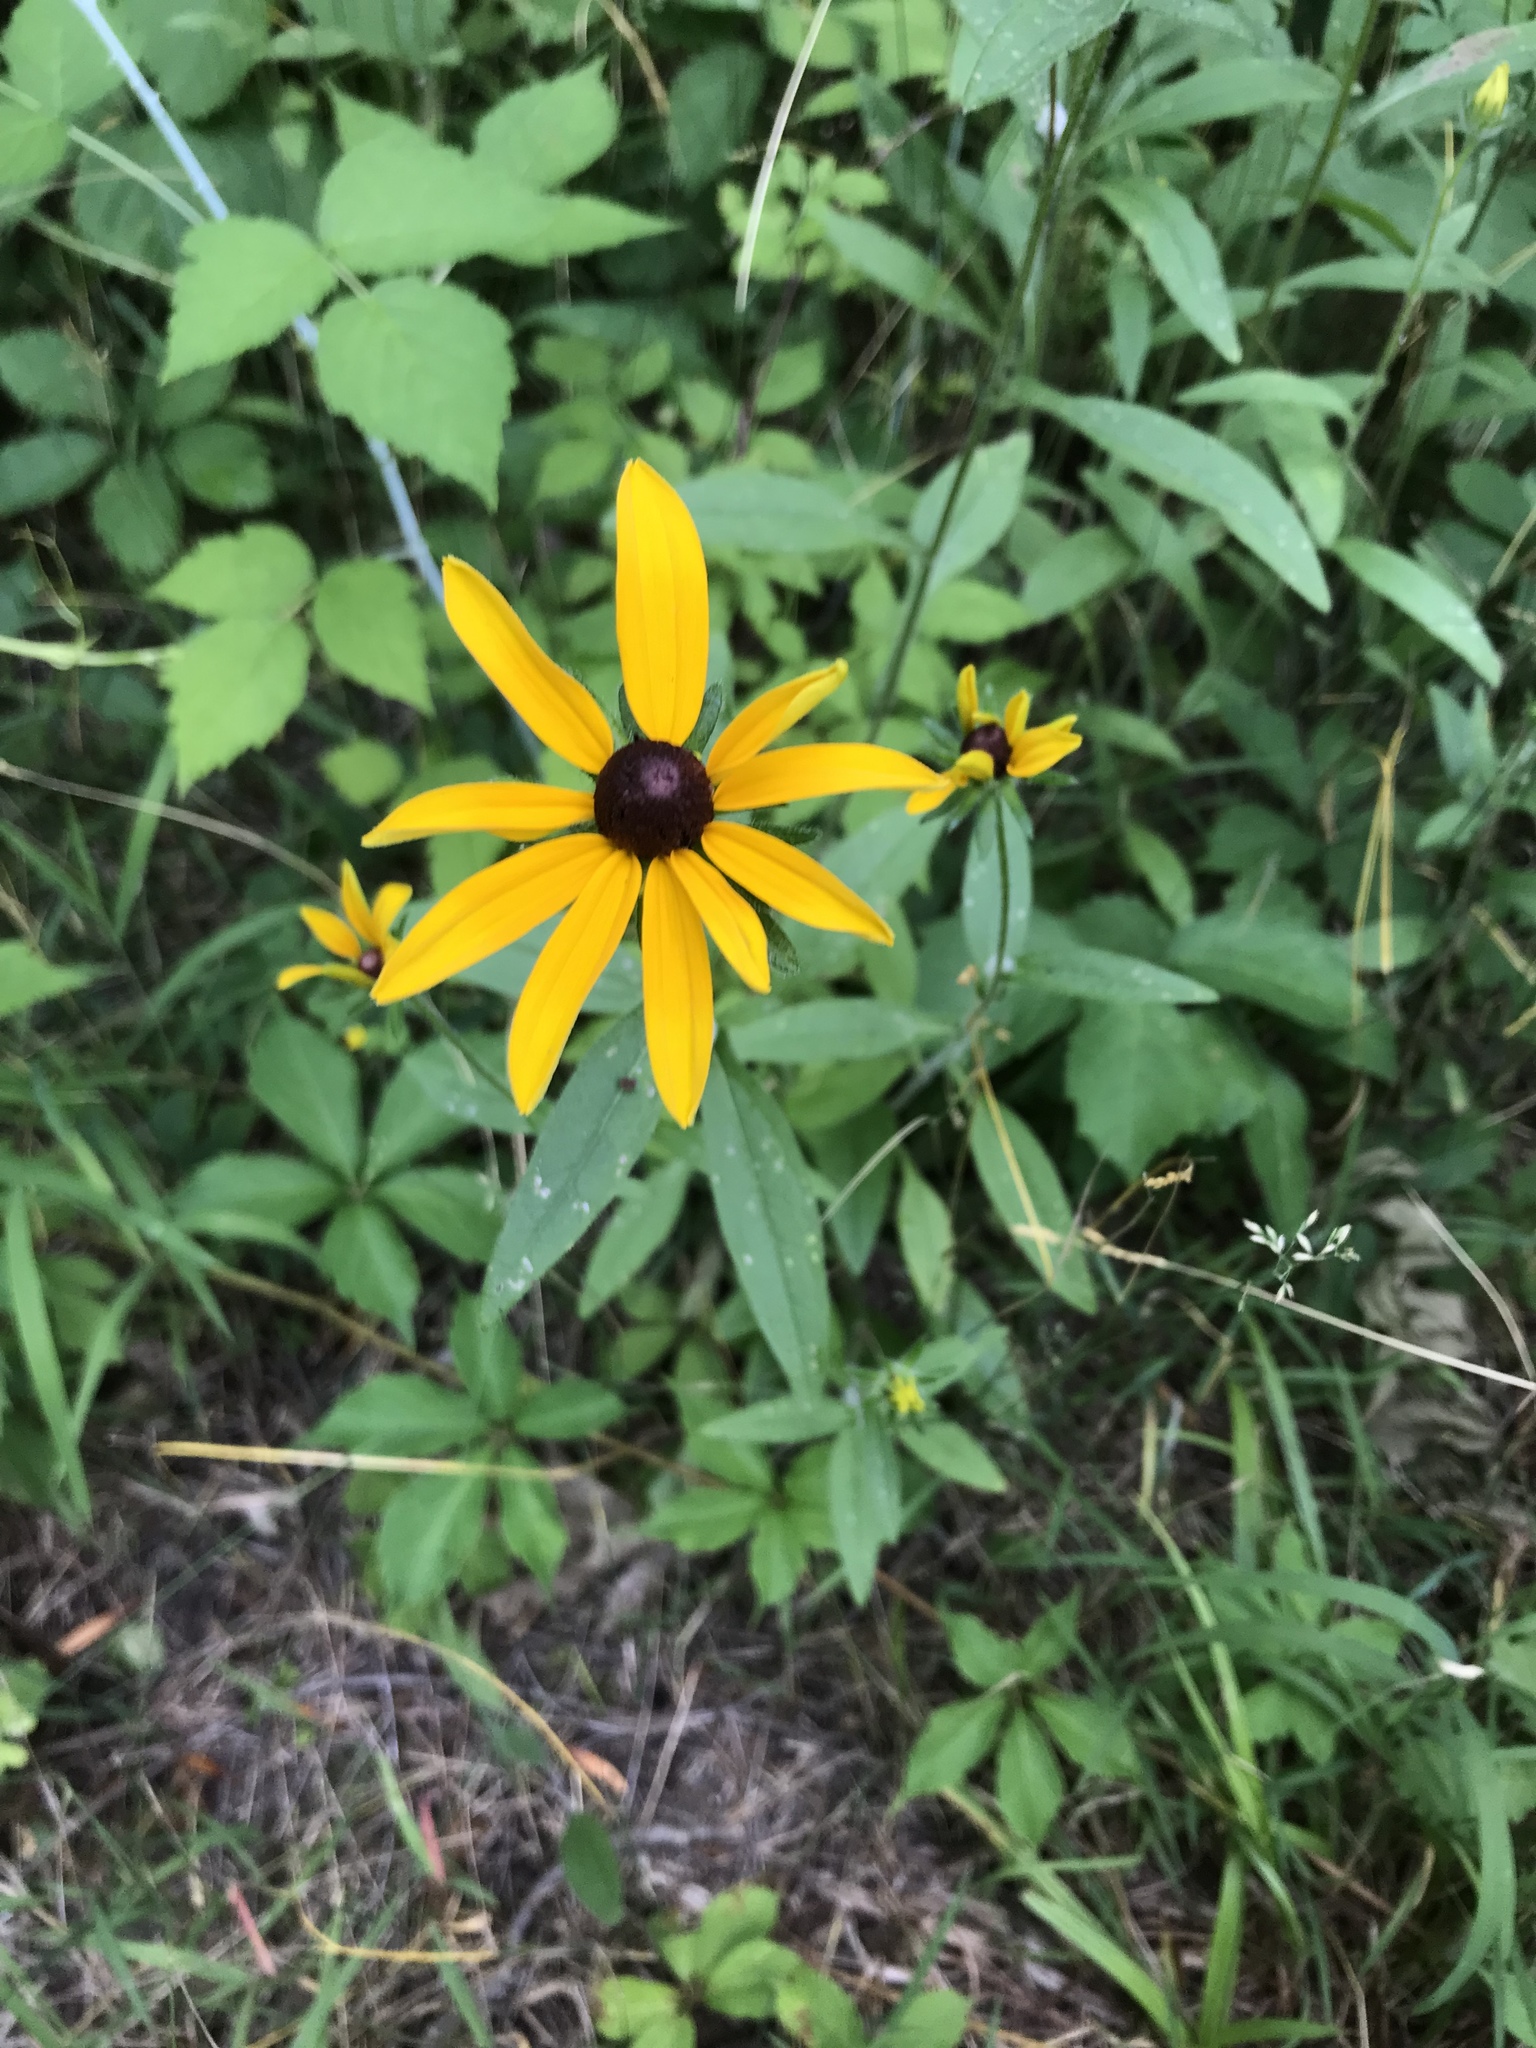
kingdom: Plantae
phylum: Tracheophyta
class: Magnoliopsida
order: Asterales
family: Asteraceae
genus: Rudbeckia
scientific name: Rudbeckia hirta
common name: Black-eyed-susan
